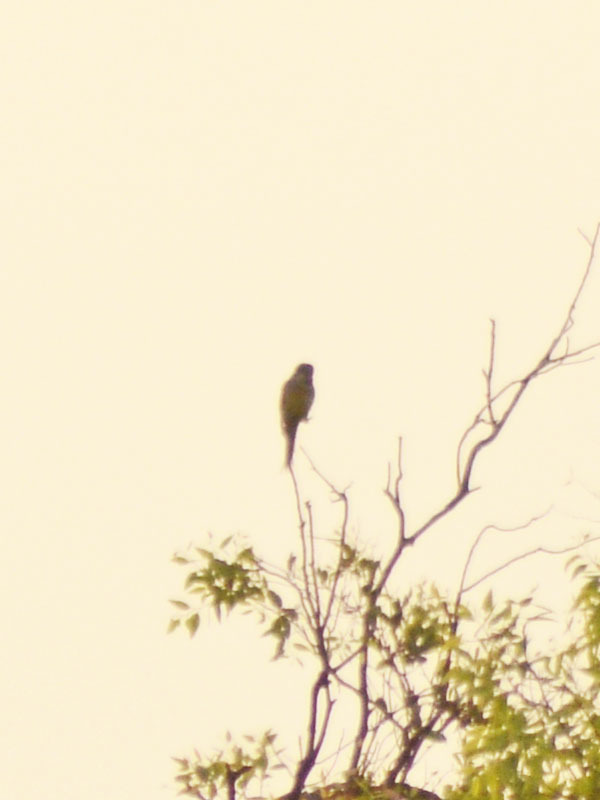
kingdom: Animalia
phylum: Chordata
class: Aves
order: Psittaciformes
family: Psittacidae
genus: Myiopsitta
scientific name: Myiopsitta monachus
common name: Monk parakeet
